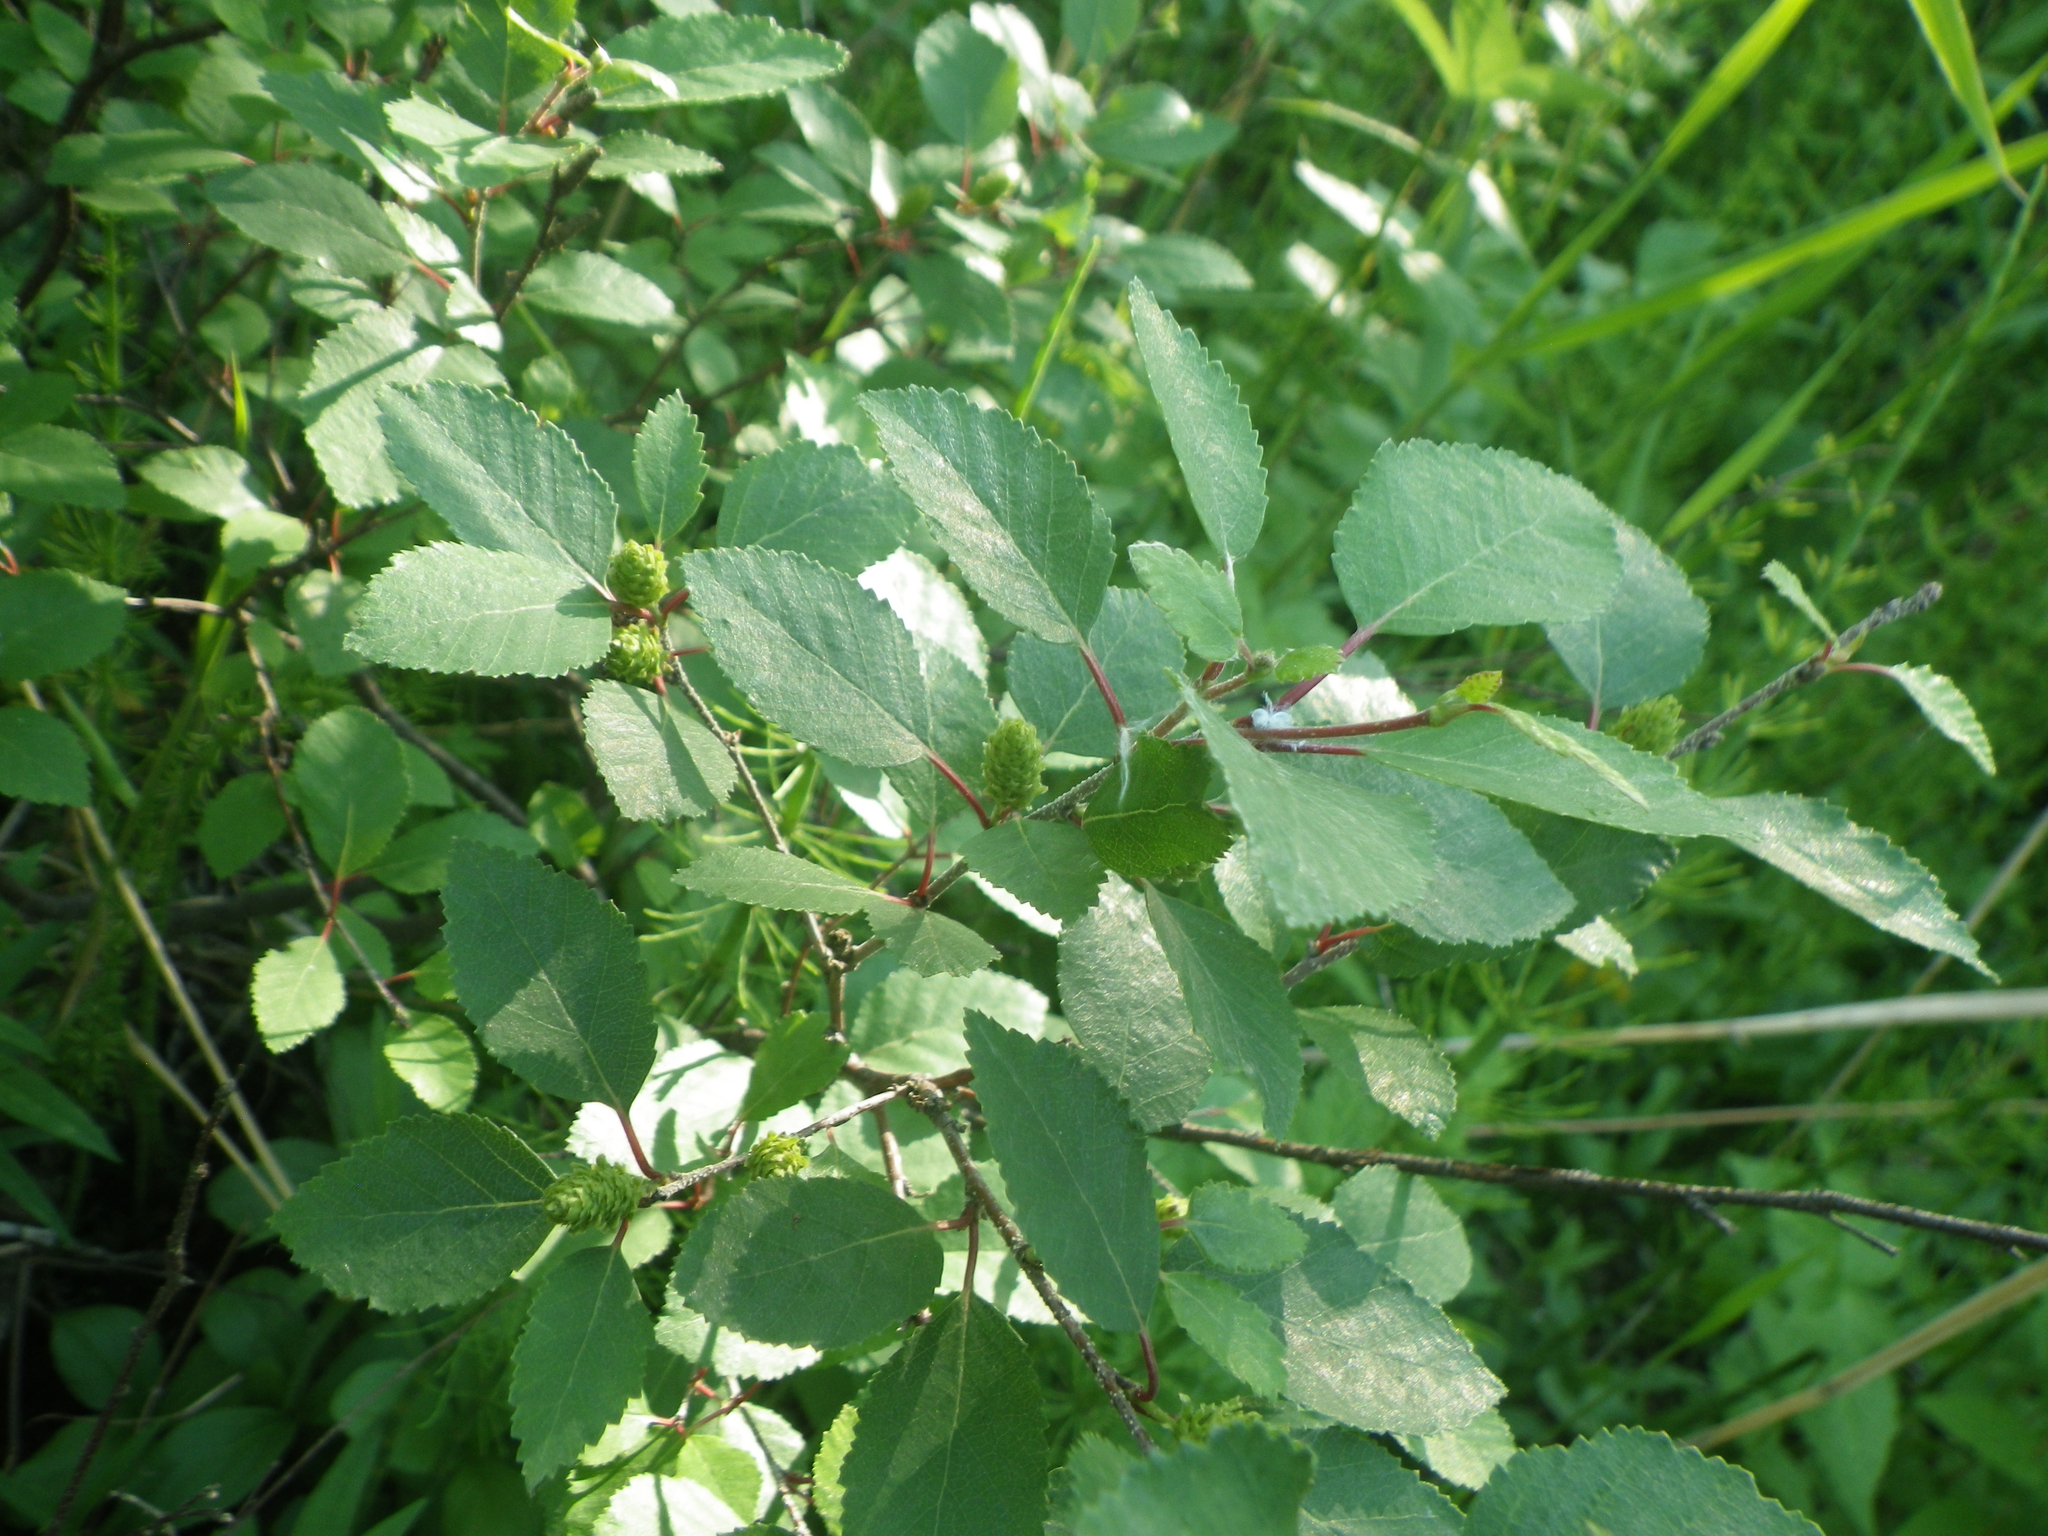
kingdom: Plantae
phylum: Tracheophyta
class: Magnoliopsida
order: Fagales
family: Betulaceae
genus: Betula
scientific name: Betula fruticosa
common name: Japanese bog birch
